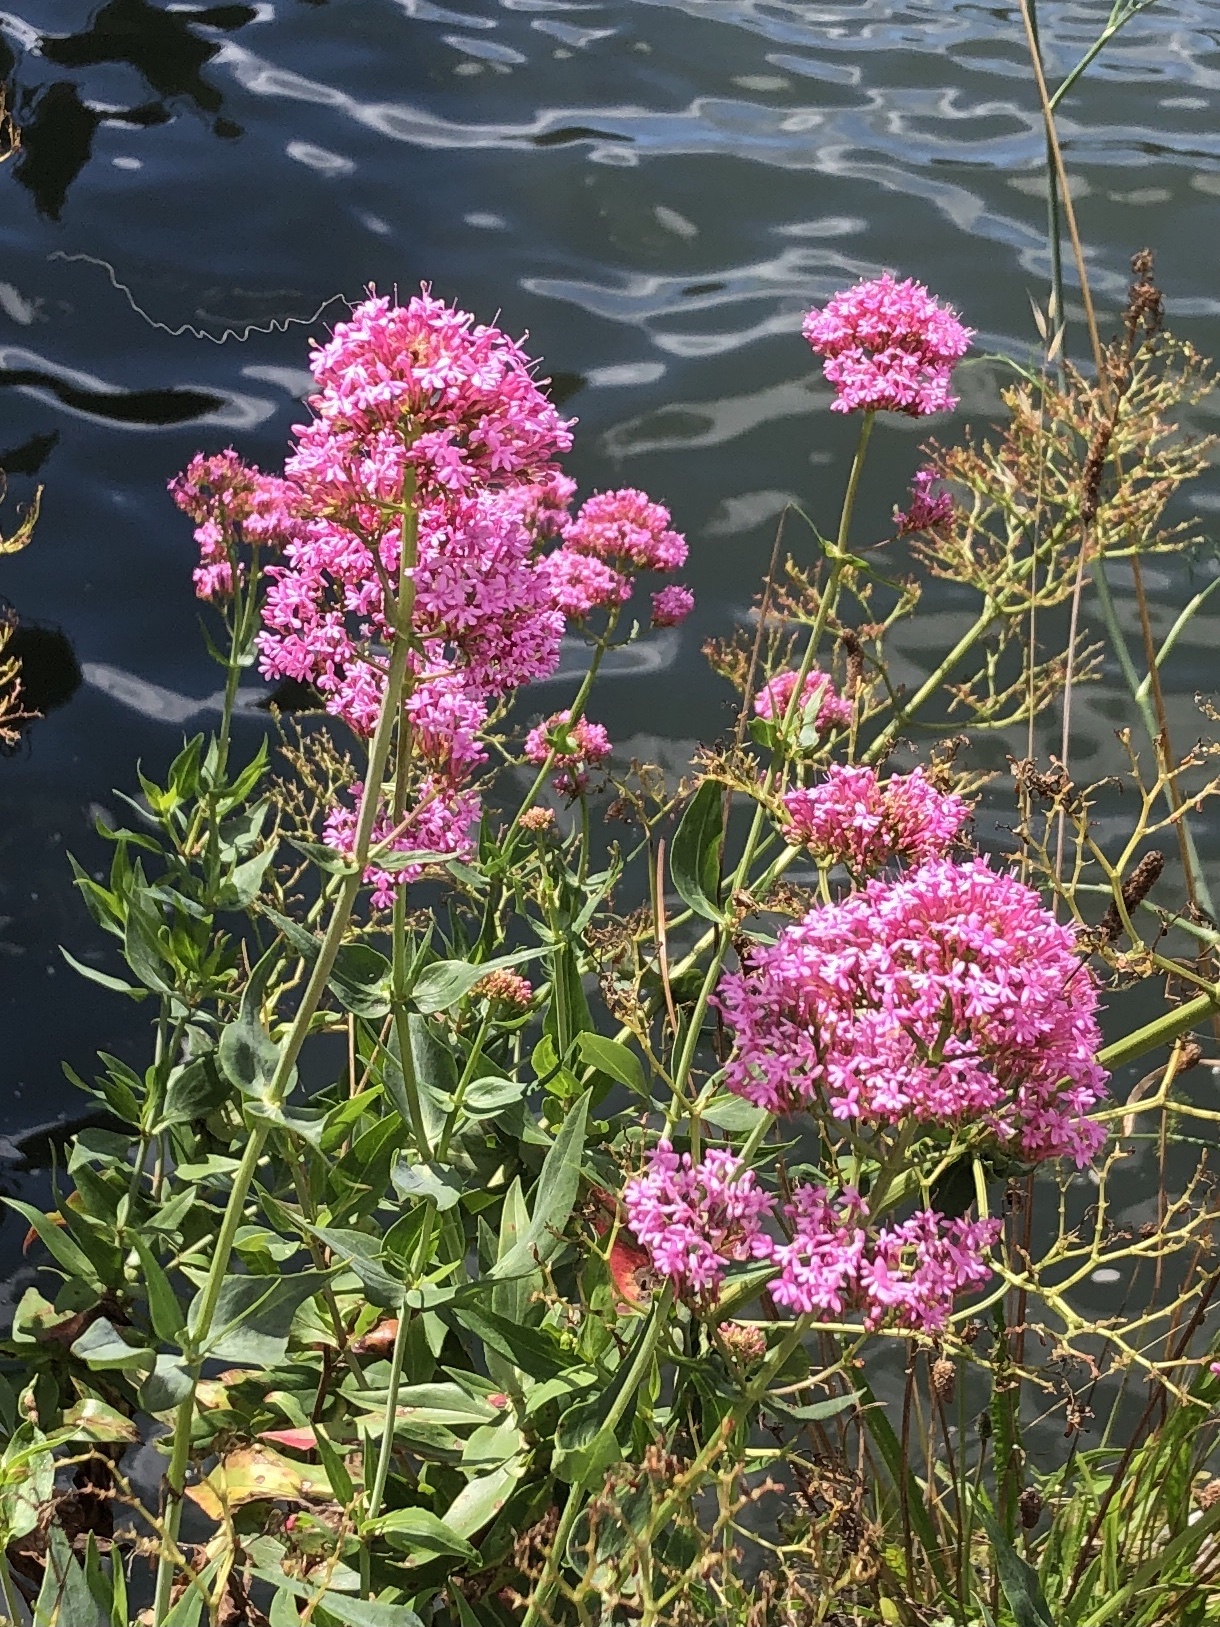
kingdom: Plantae
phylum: Tracheophyta
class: Magnoliopsida
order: Dipsacales
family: Caprifoliaceae
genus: Centranthus
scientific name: Centranthus ruber
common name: Red valerian
